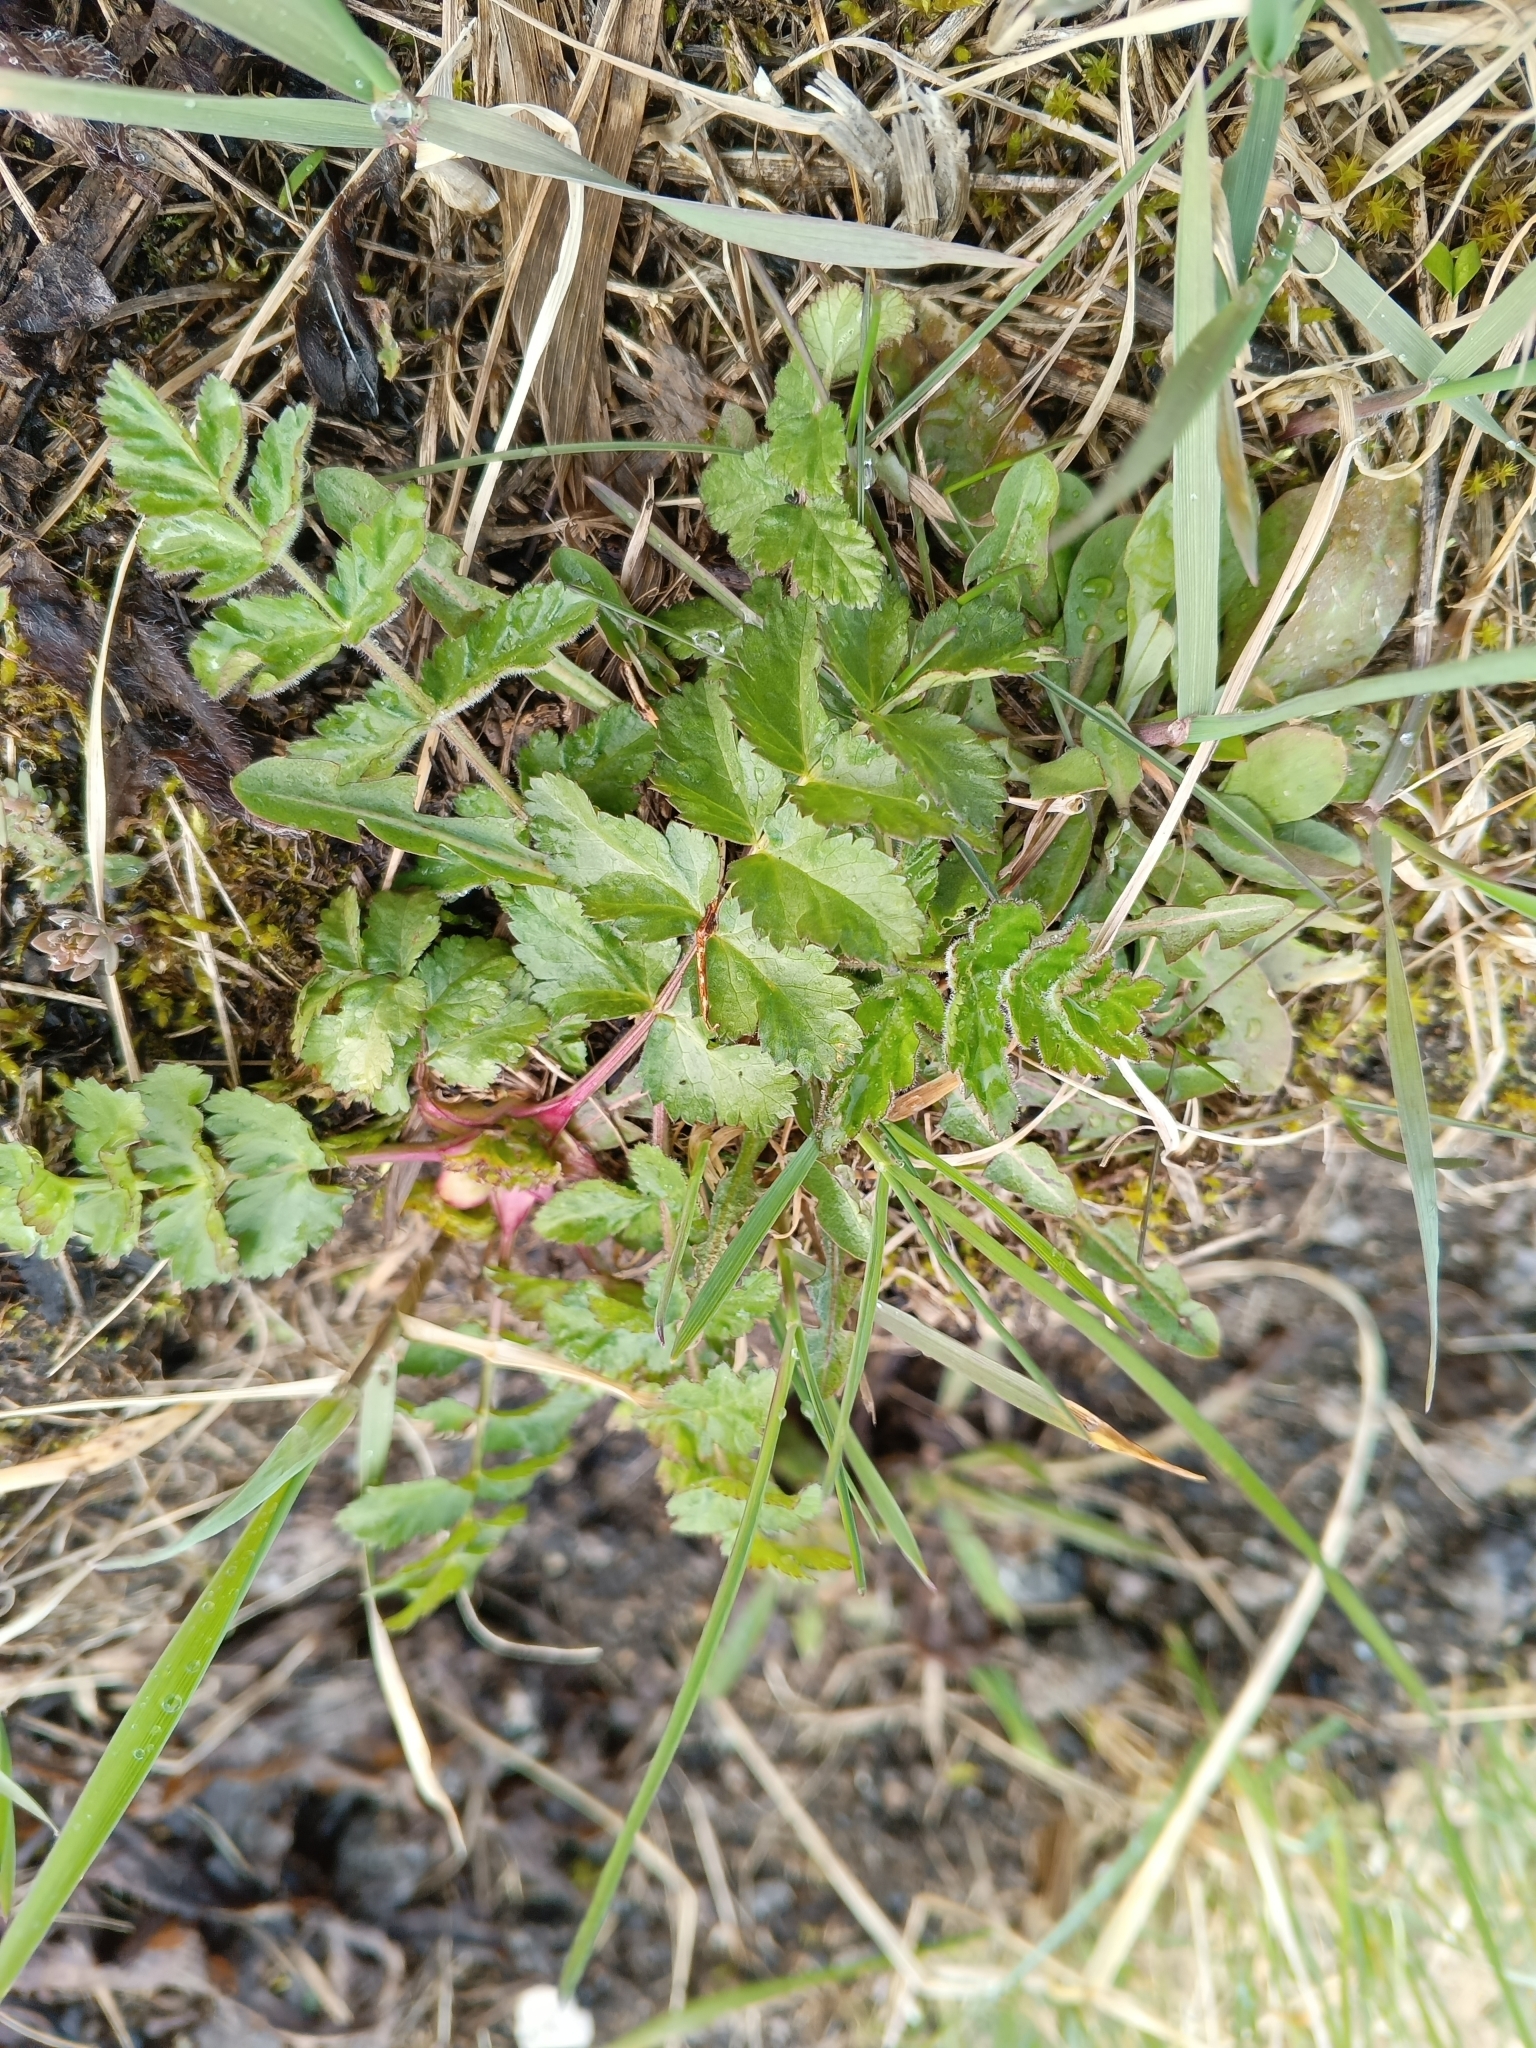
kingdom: Plantae
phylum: Tracheophyta
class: Magnoliopsida
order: Apiales
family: Apiaceae
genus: Pastinaca
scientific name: Pastinaca sativa
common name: Wild parsnip
